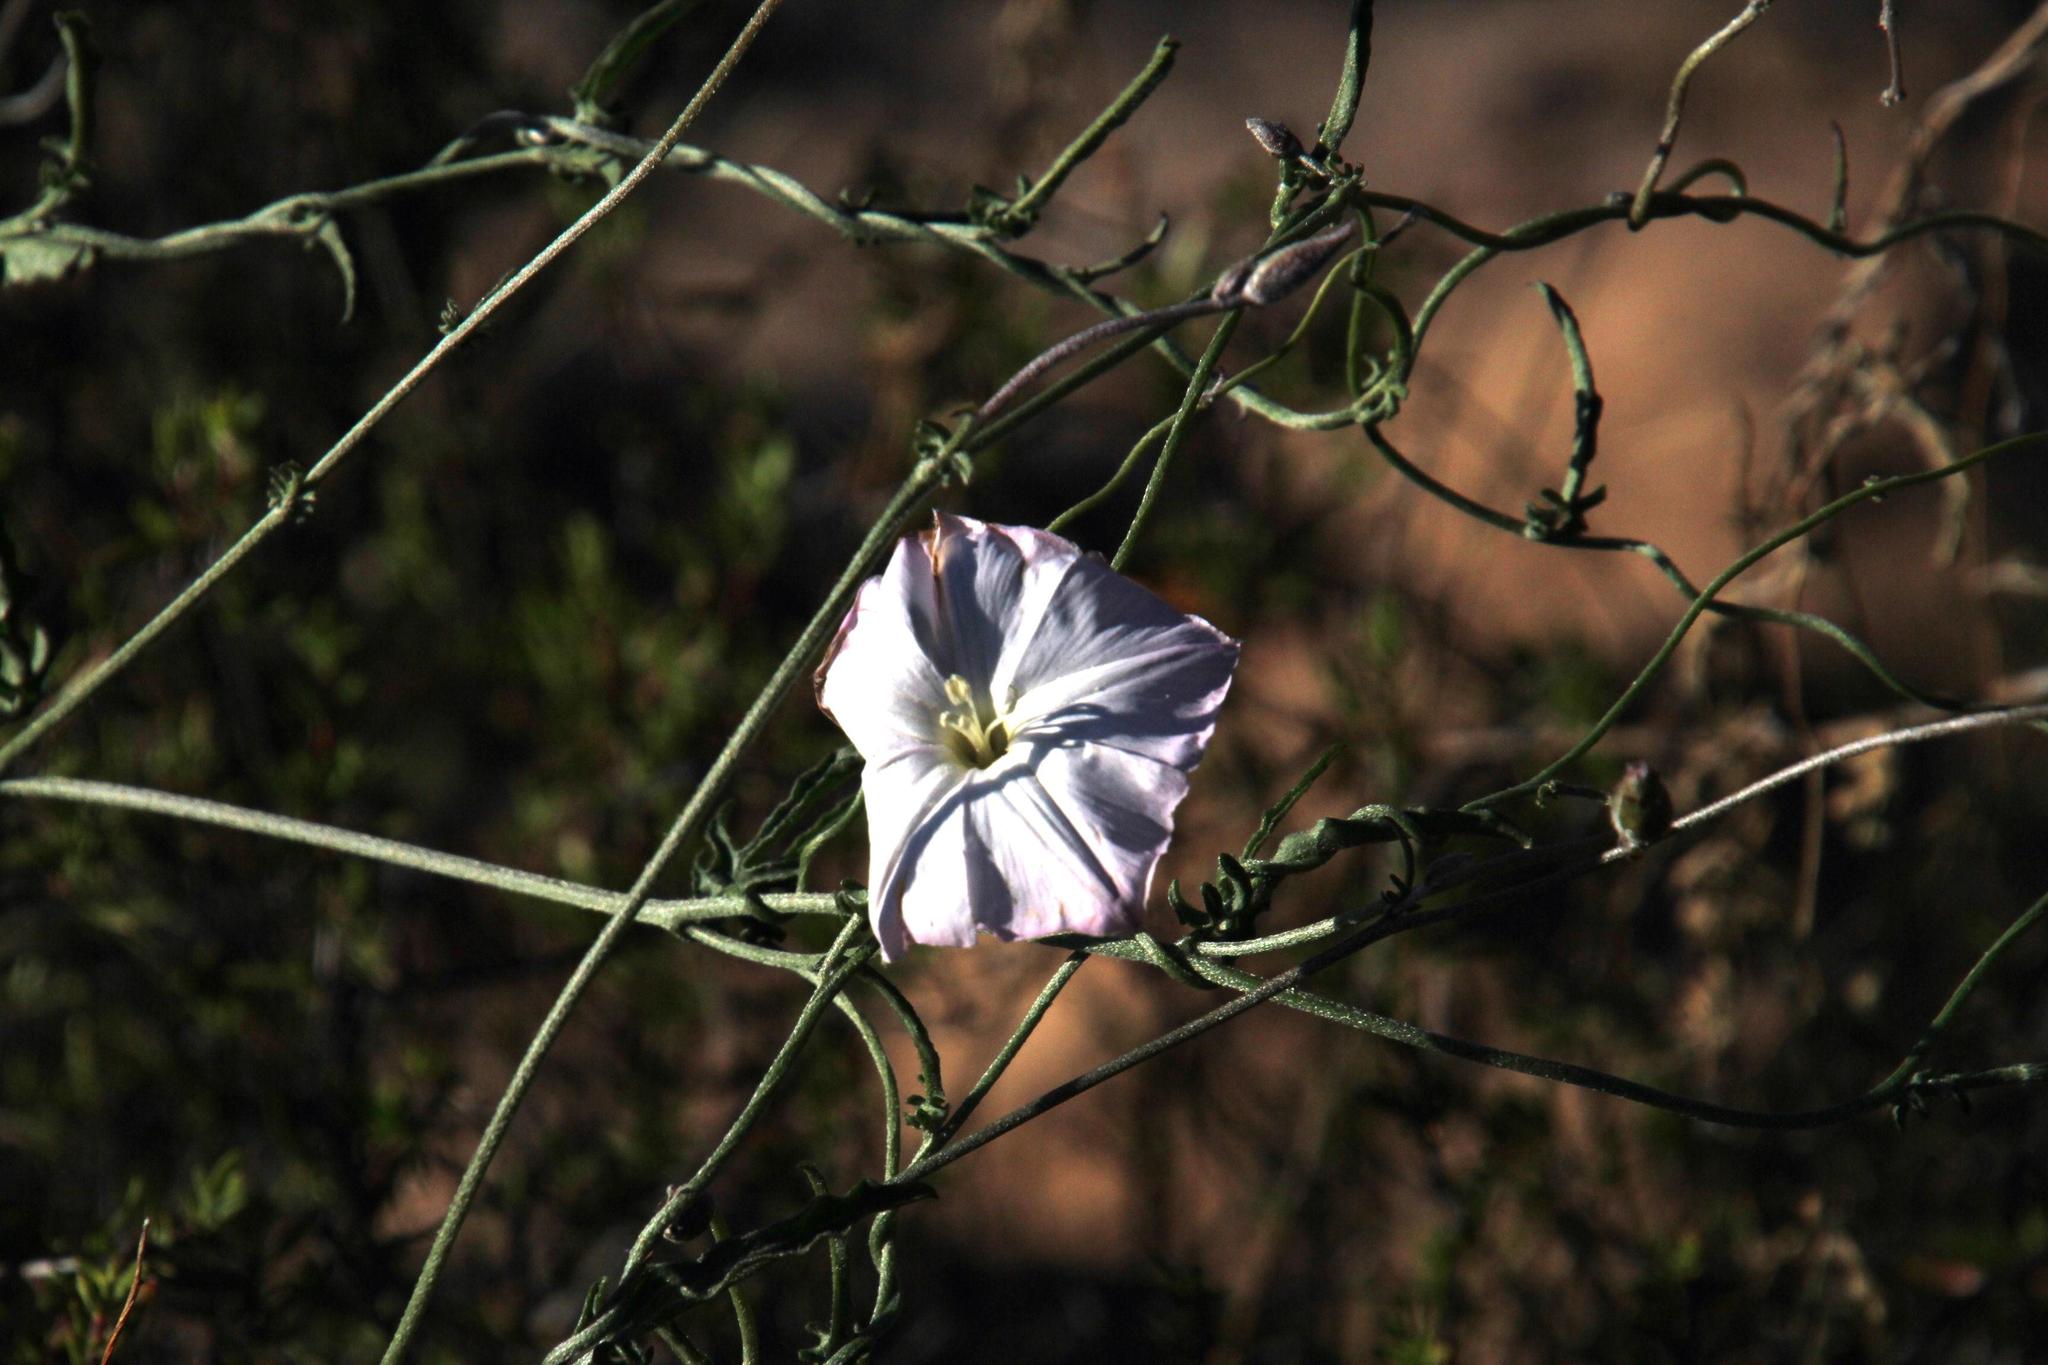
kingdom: Plantae
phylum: Tracheophyta
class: Magnoliopsida
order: Solanales
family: Convolvulaceae
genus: Convolvulus
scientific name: Convolvulus capensis
